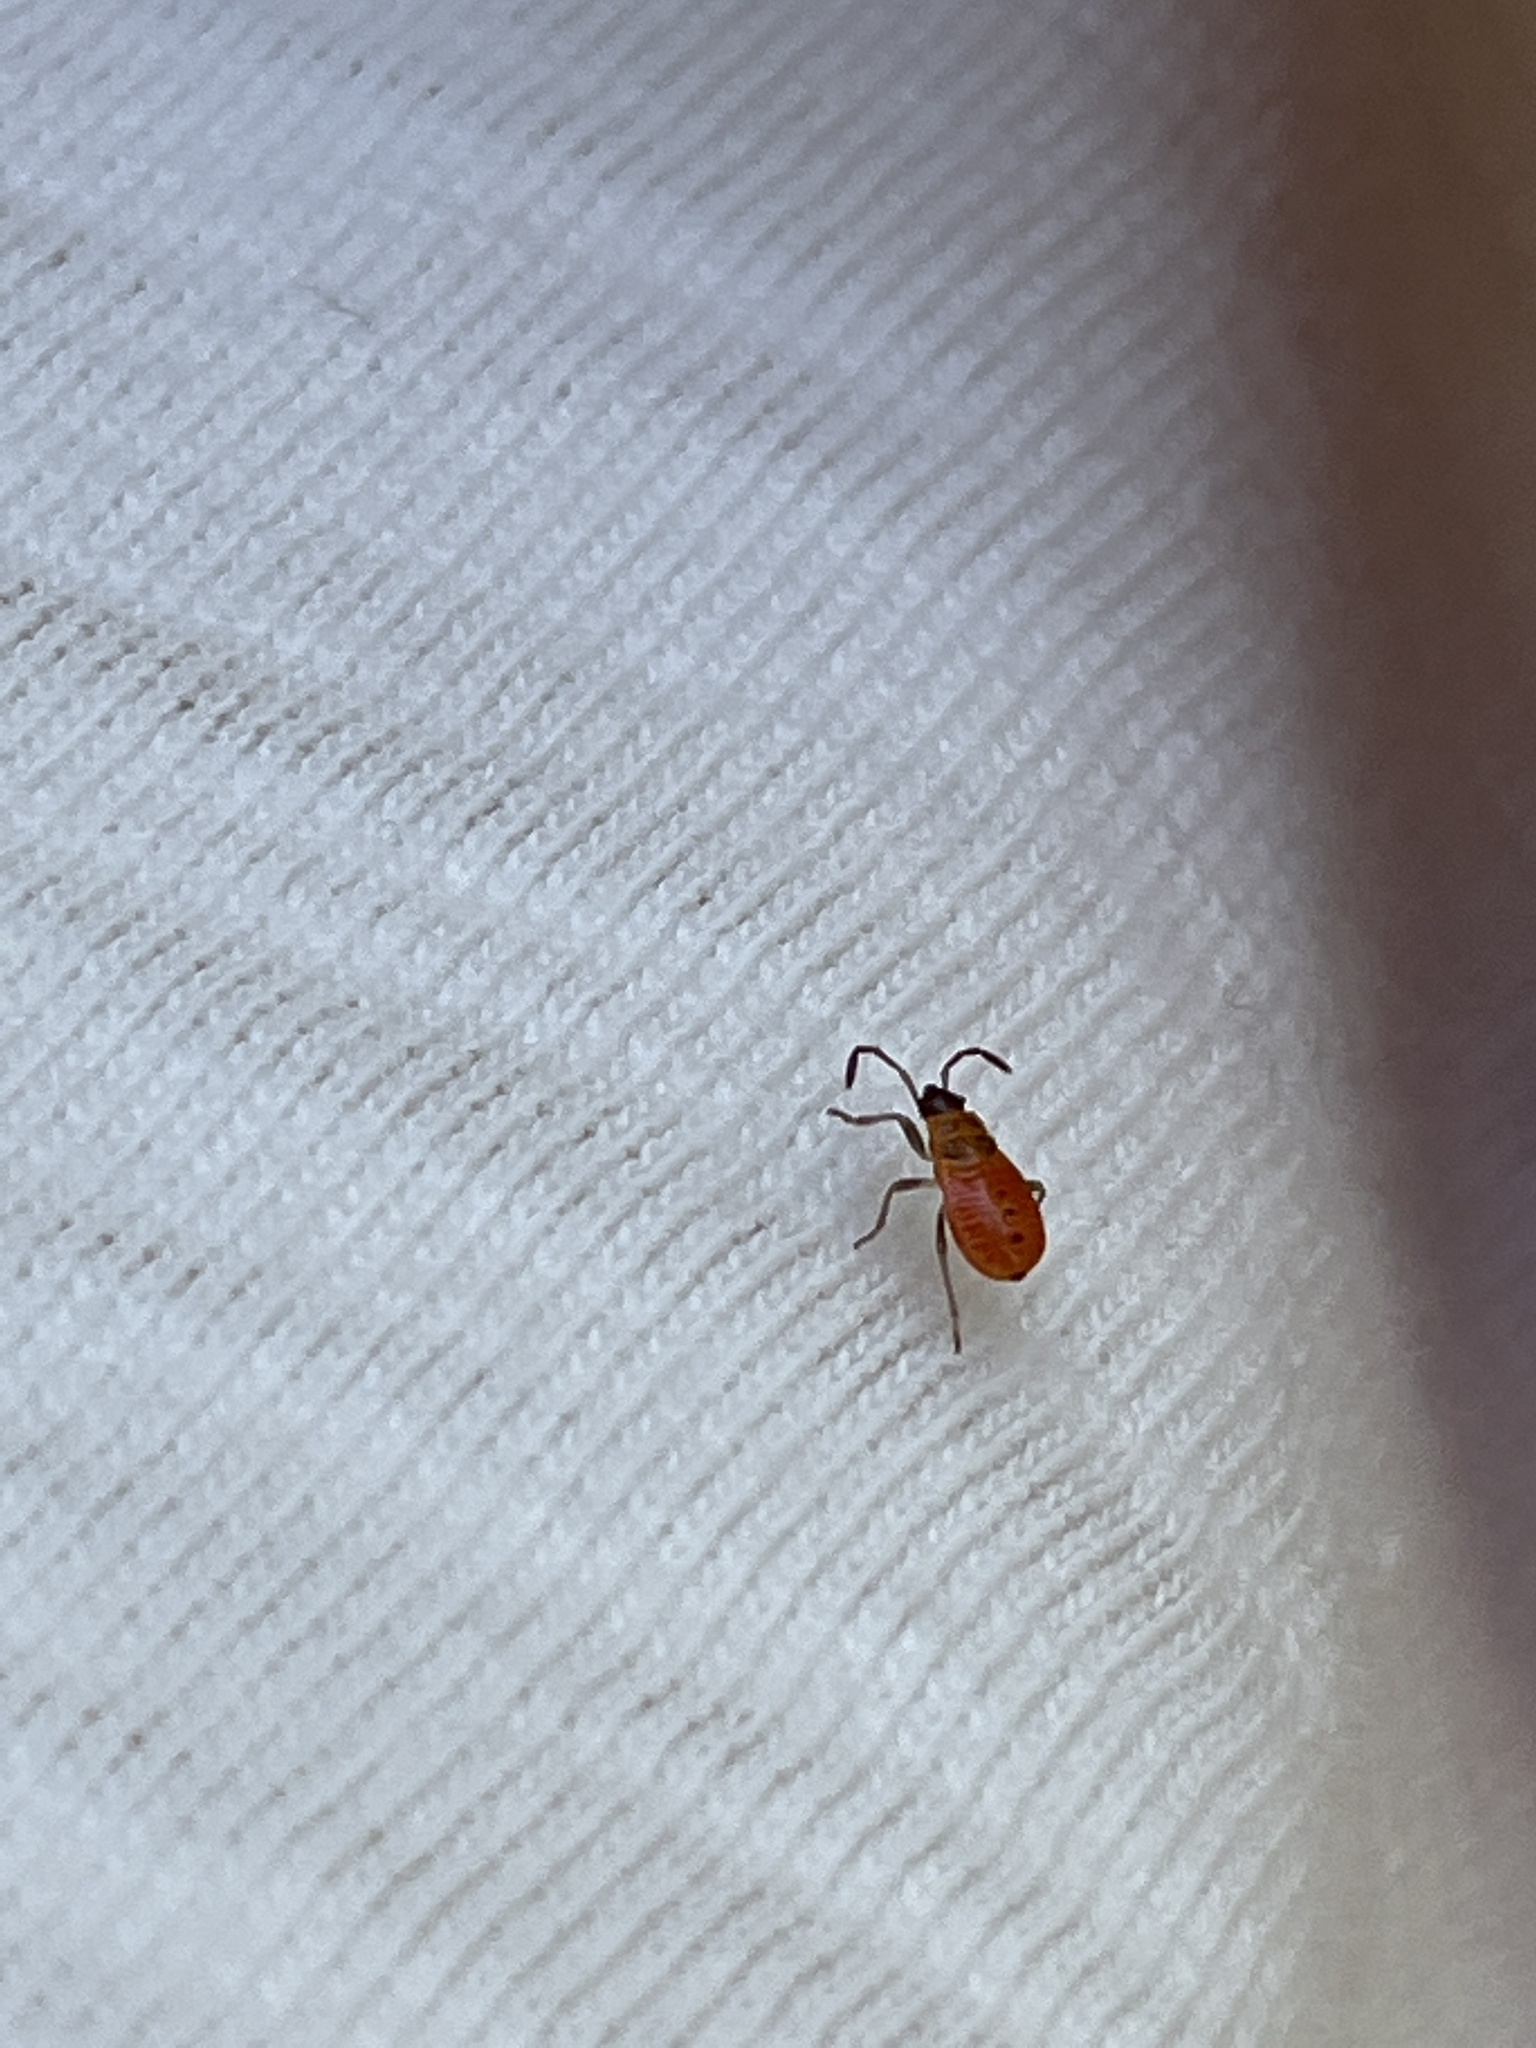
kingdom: Animalia
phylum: Arthropoda
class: Insecta
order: Hemiptera
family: Pyrrhocoridae
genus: Pyrrhocoris
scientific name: Pyrrhocoris apterus
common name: Firebug
